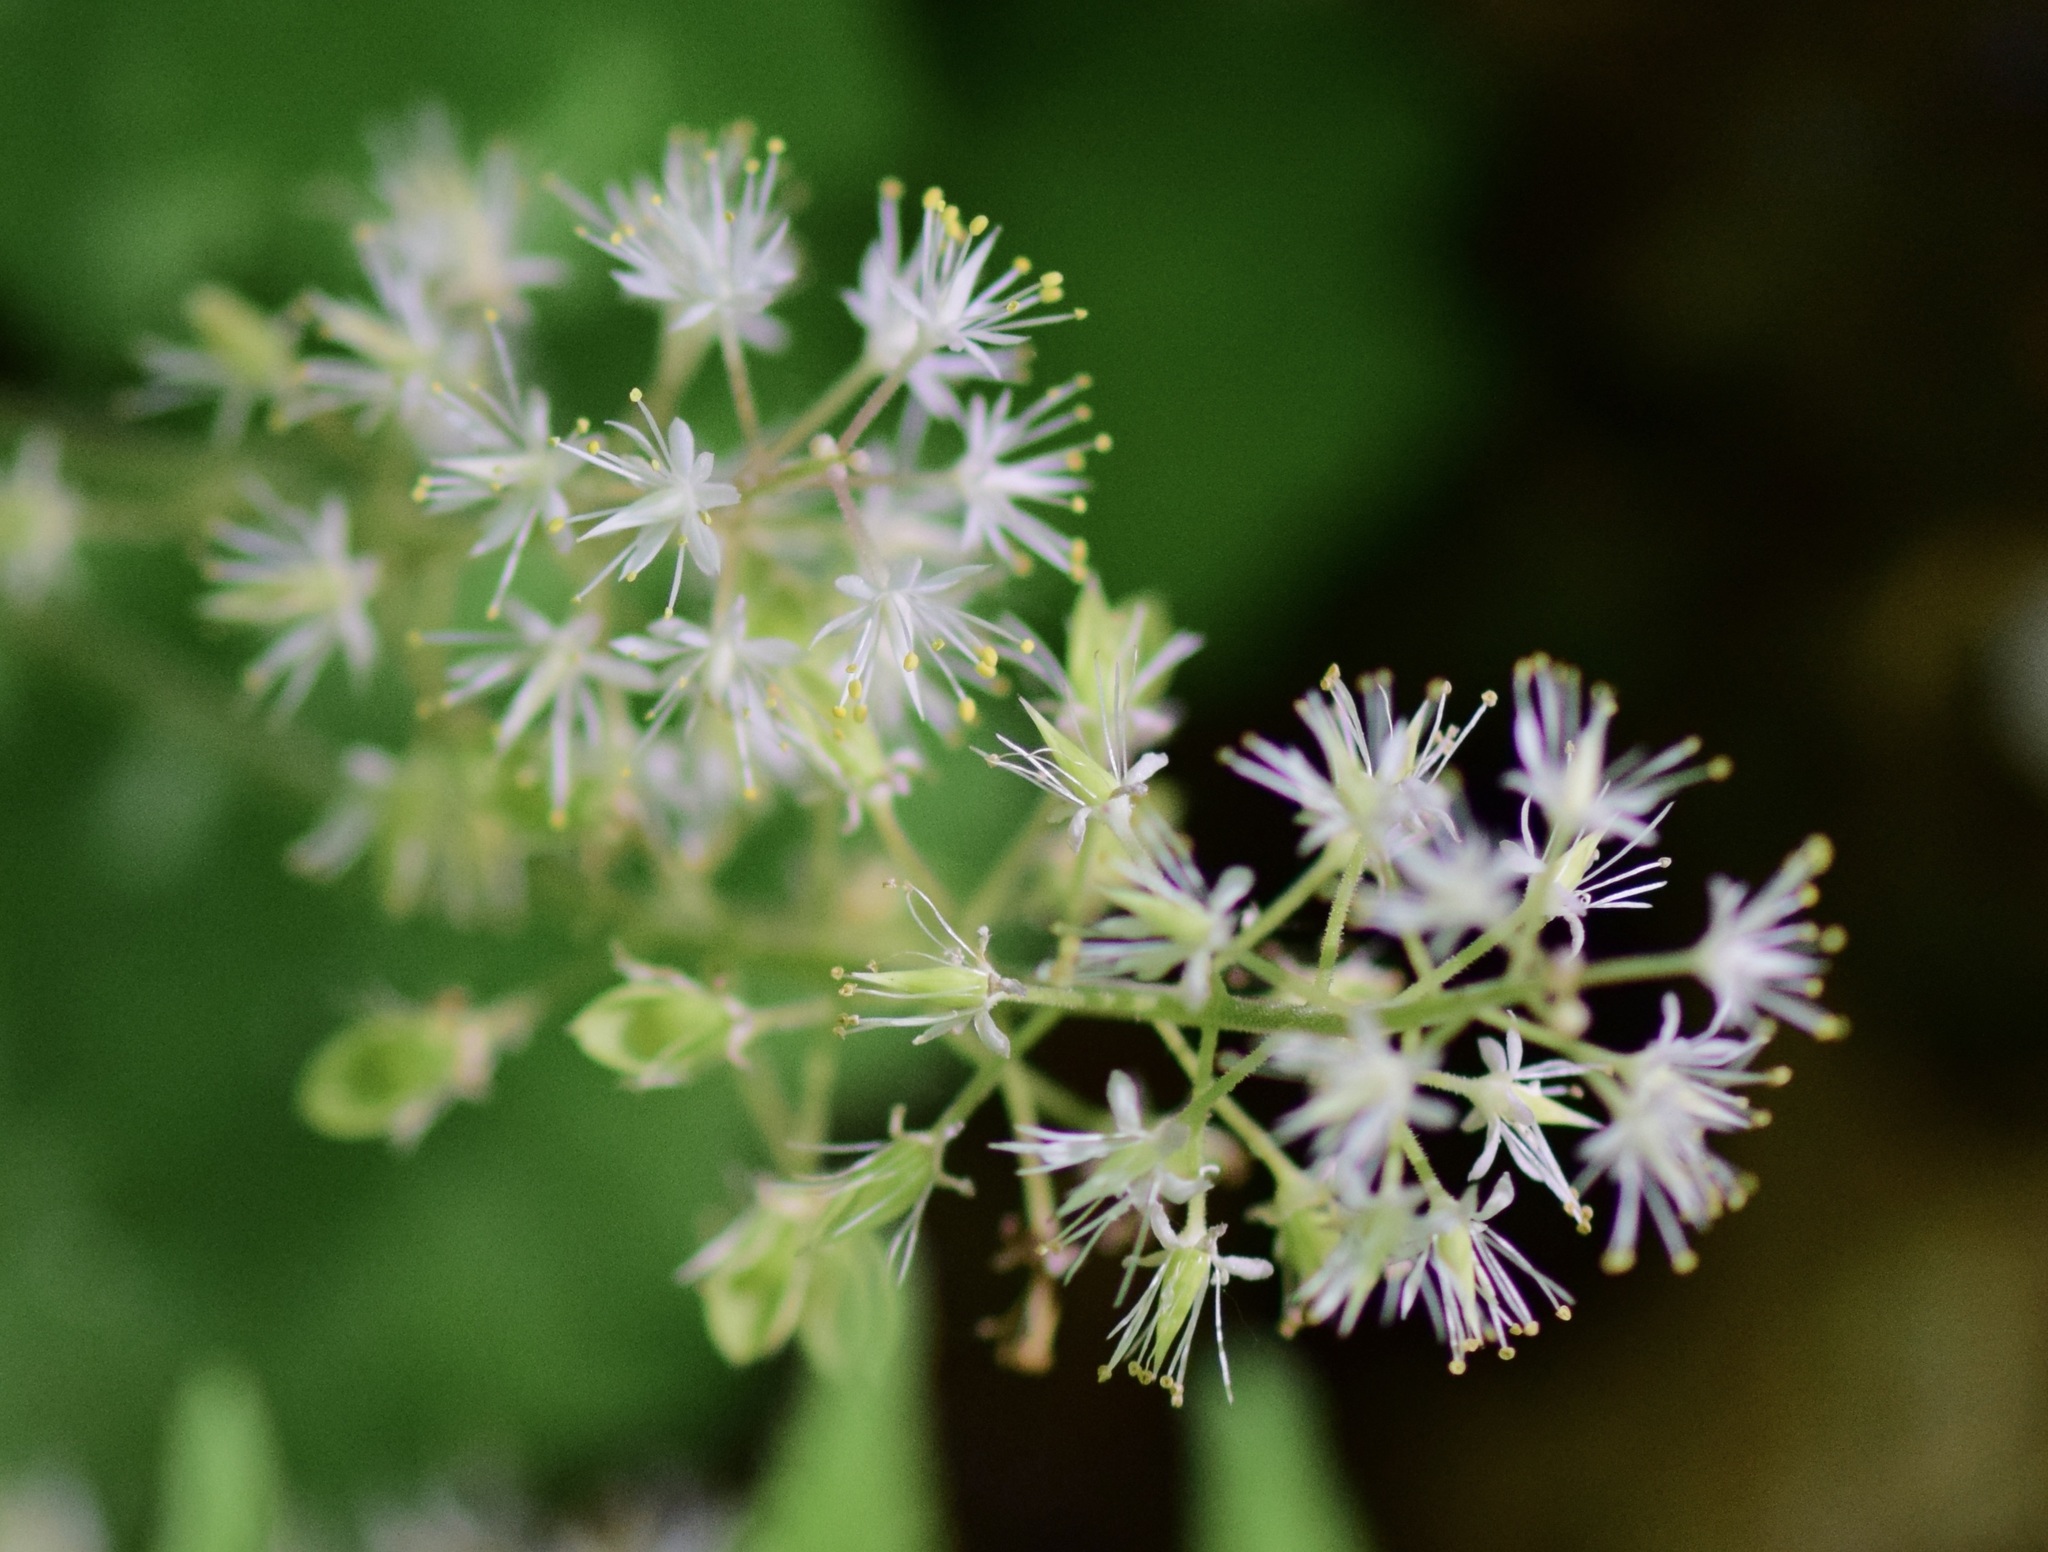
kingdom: Plantae
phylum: Tracheophyta
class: Magnoliopsida
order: Saxifragales
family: Saxifragaceae
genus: Tiarella
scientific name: Tiarella stolonifera
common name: Stoloniferous foamflower
